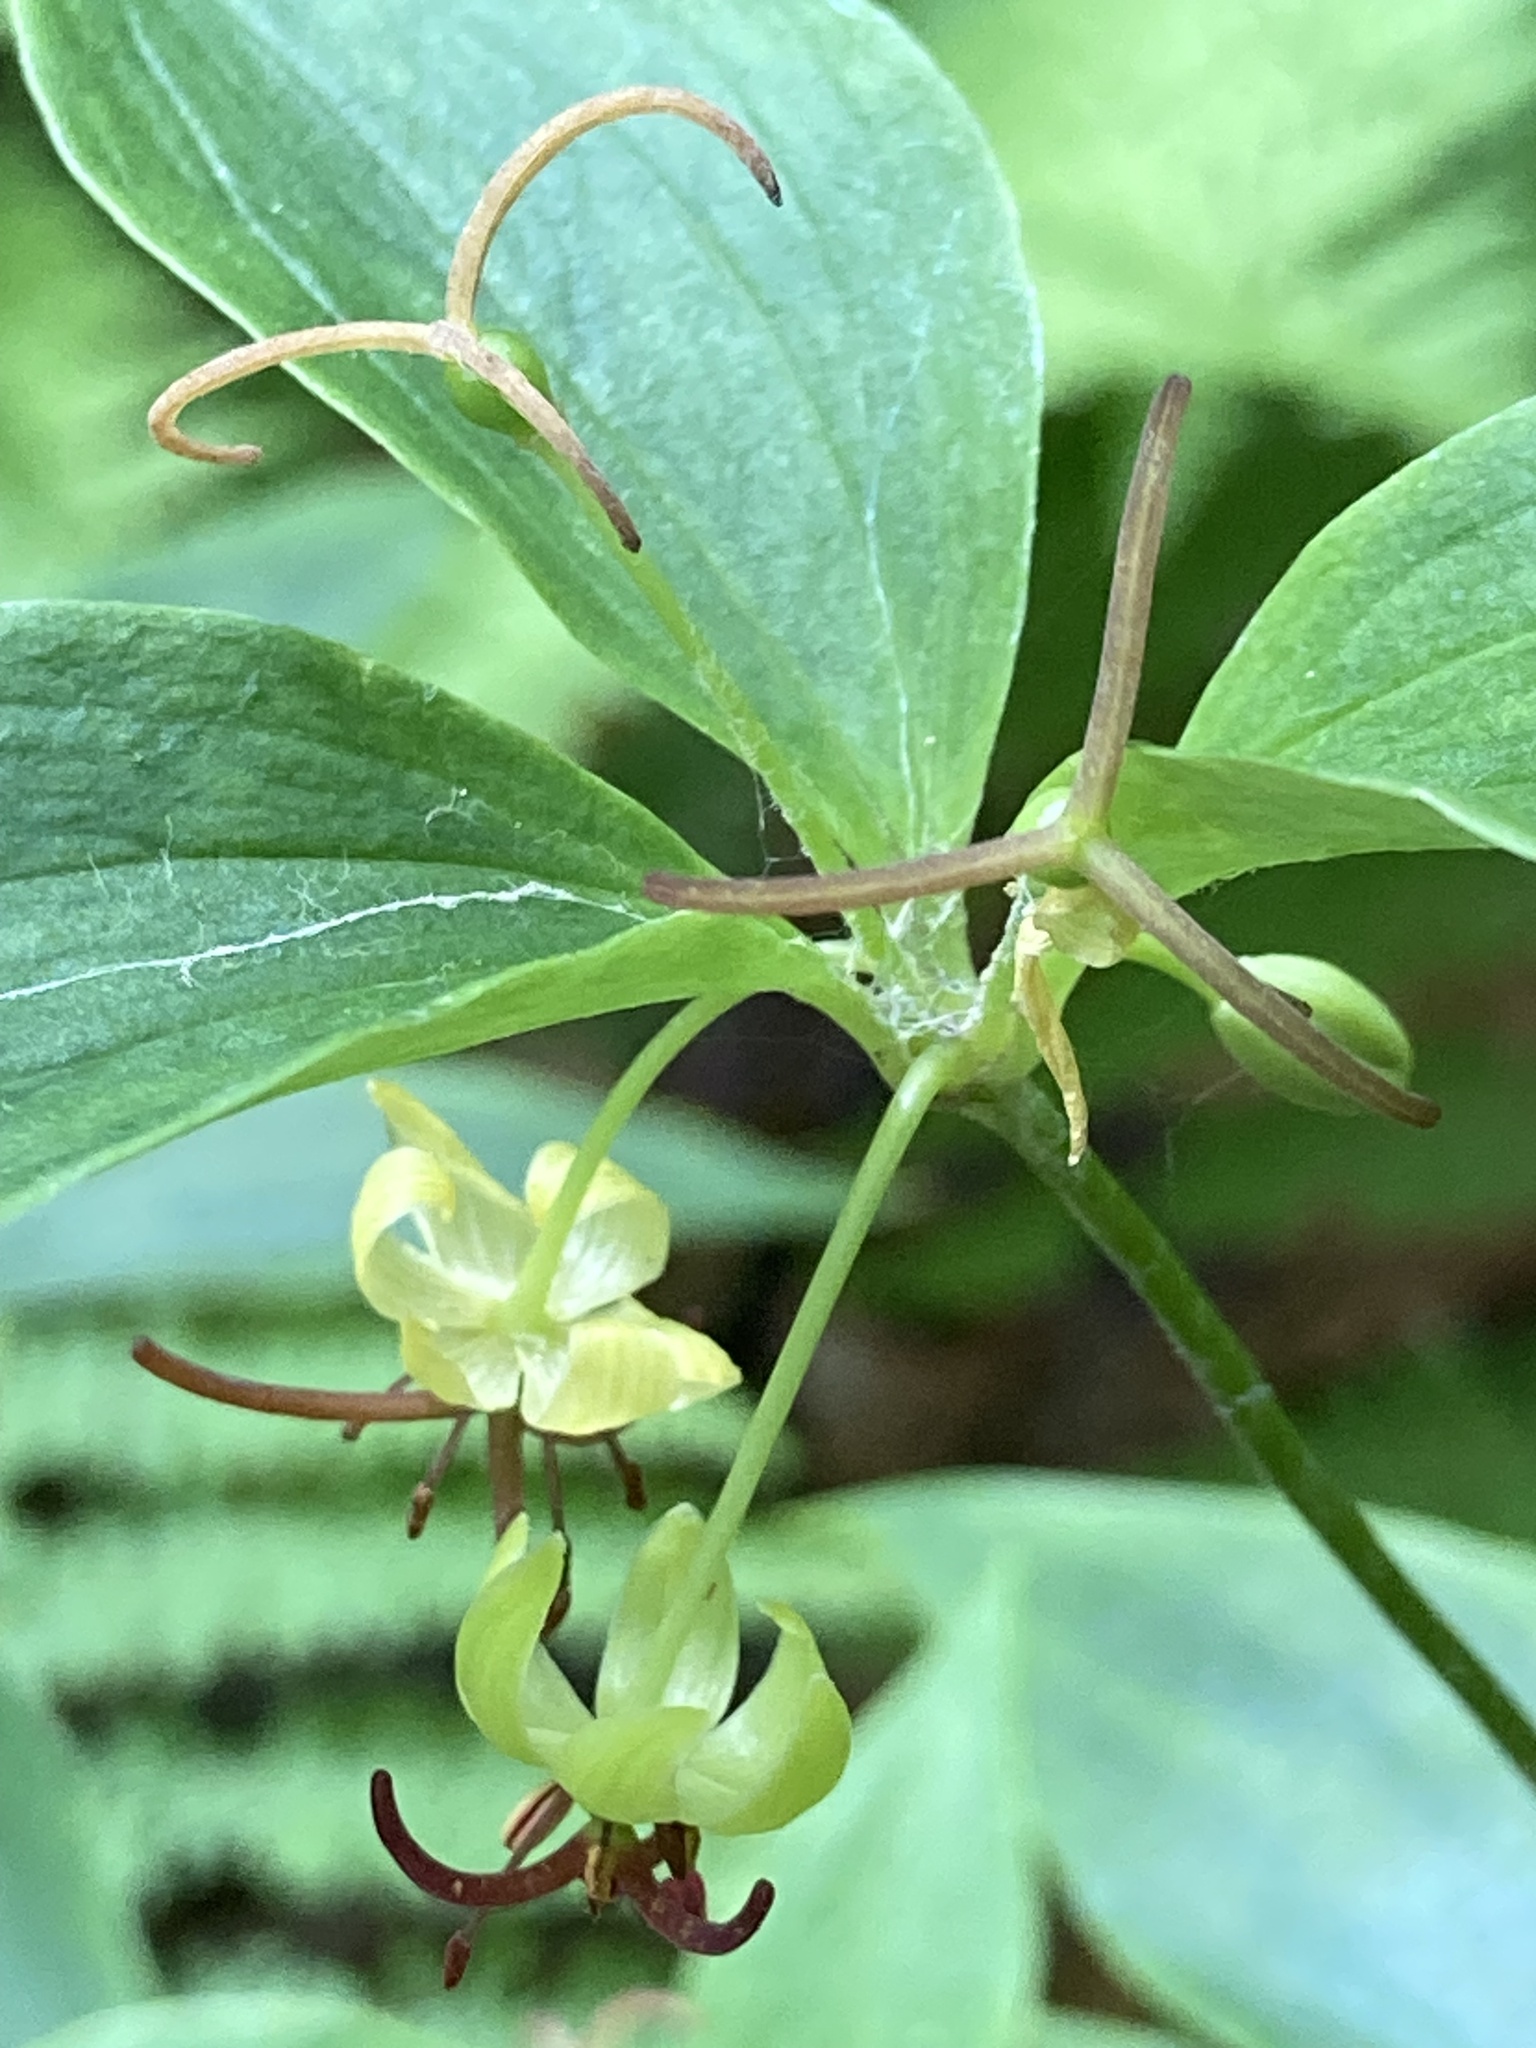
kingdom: Plantae
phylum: Tracheophyta
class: Liliopsida
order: Liliales
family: Liliaceae
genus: Medeola
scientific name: Medeola virginiana
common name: Indian cucumber-root
